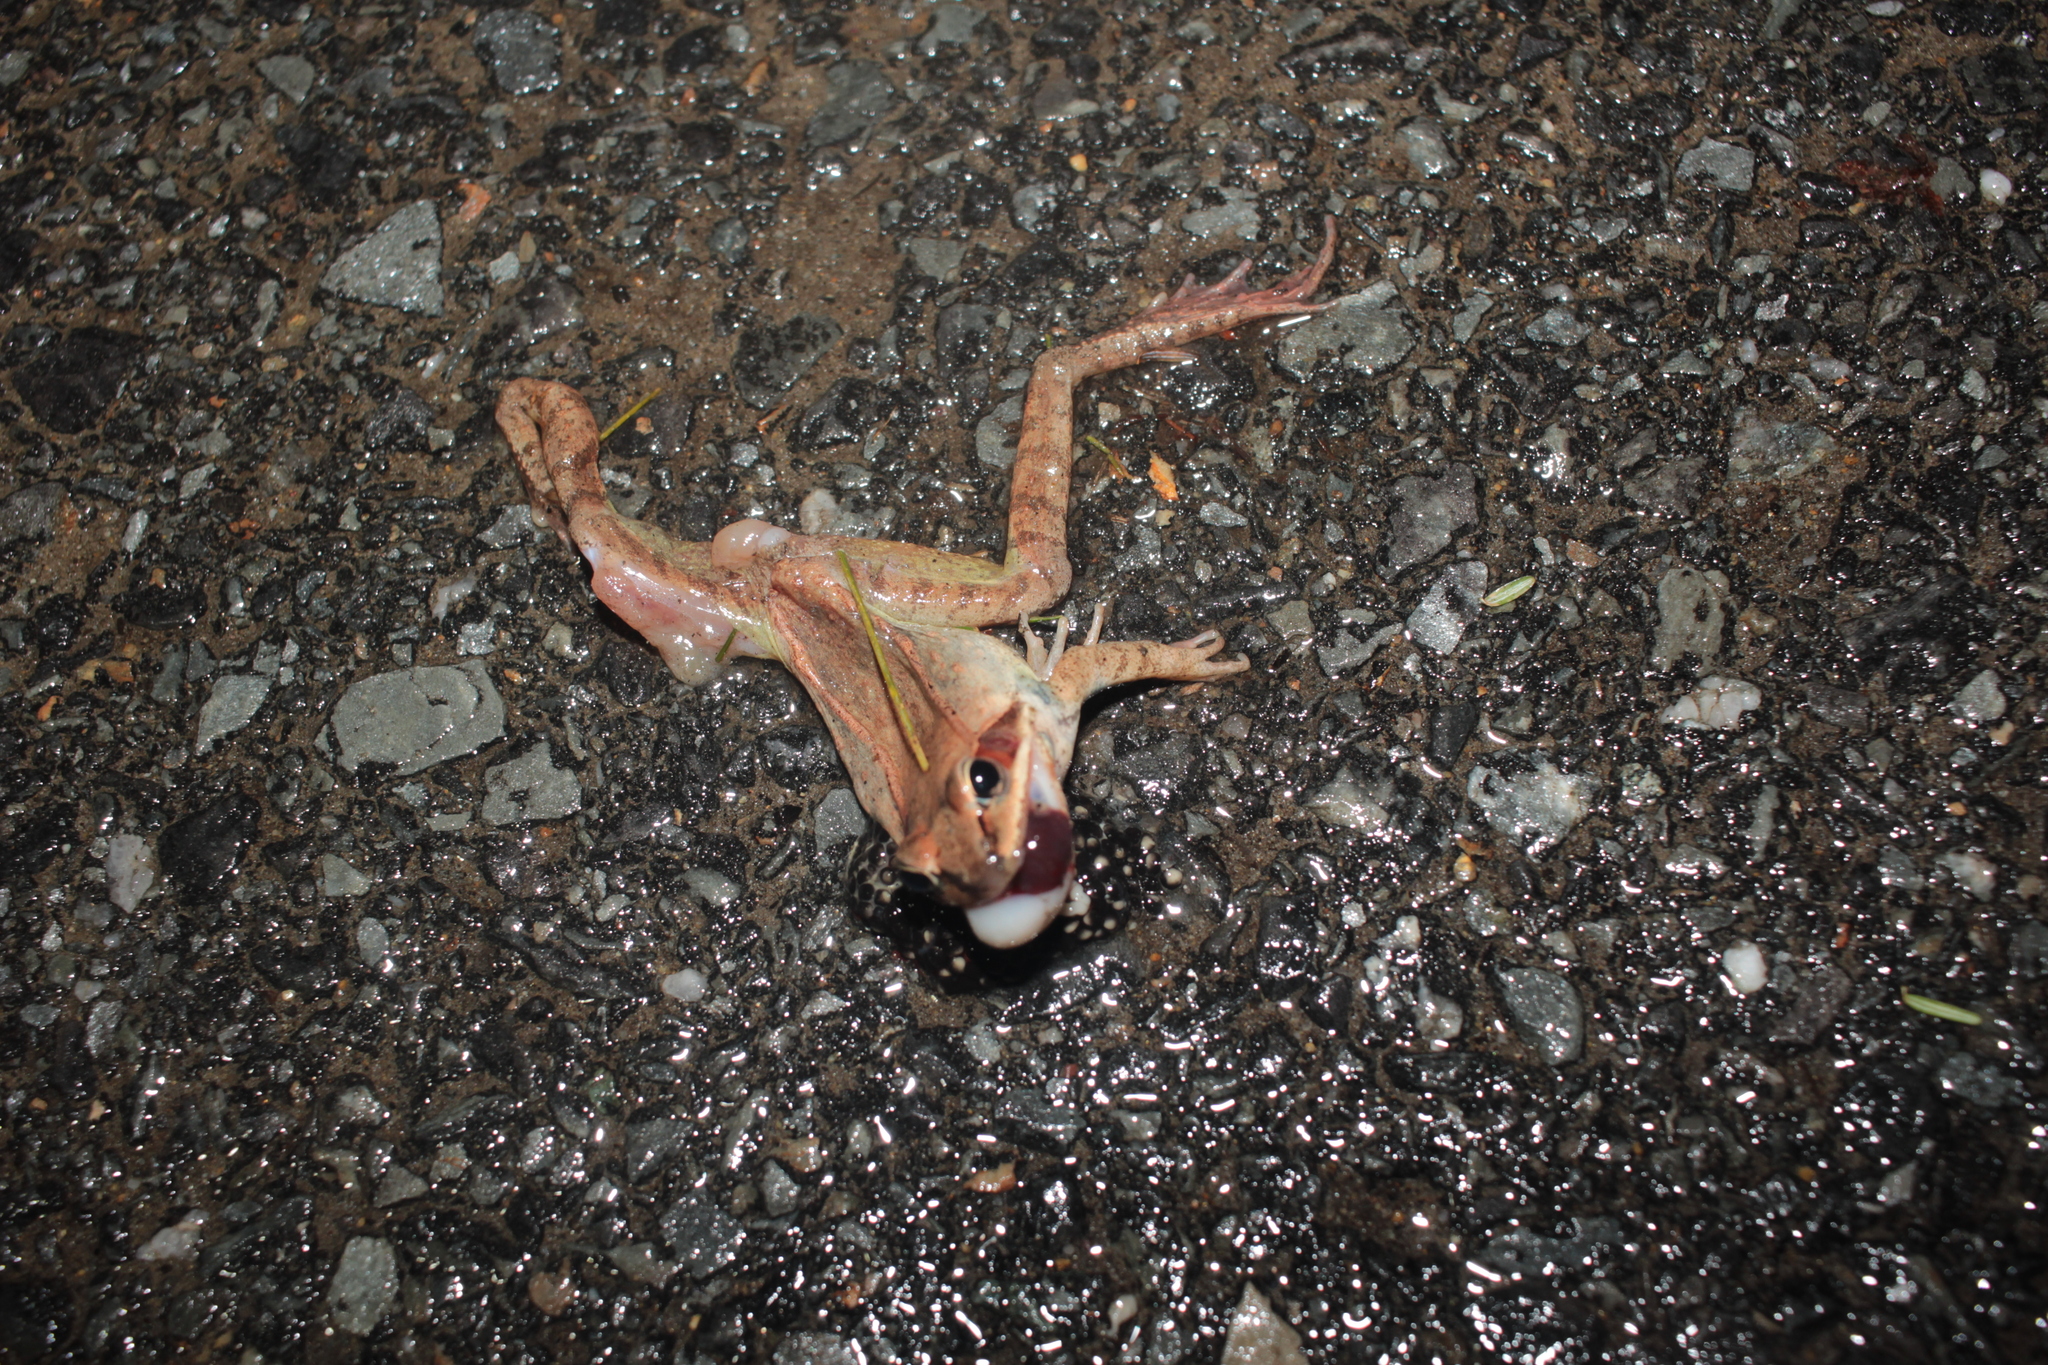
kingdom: Animalia
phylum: Chordata
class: Amphibia
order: Anura
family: Ranidae
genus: Lithobates
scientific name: Lithobates sylvaticus
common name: Wood frog
